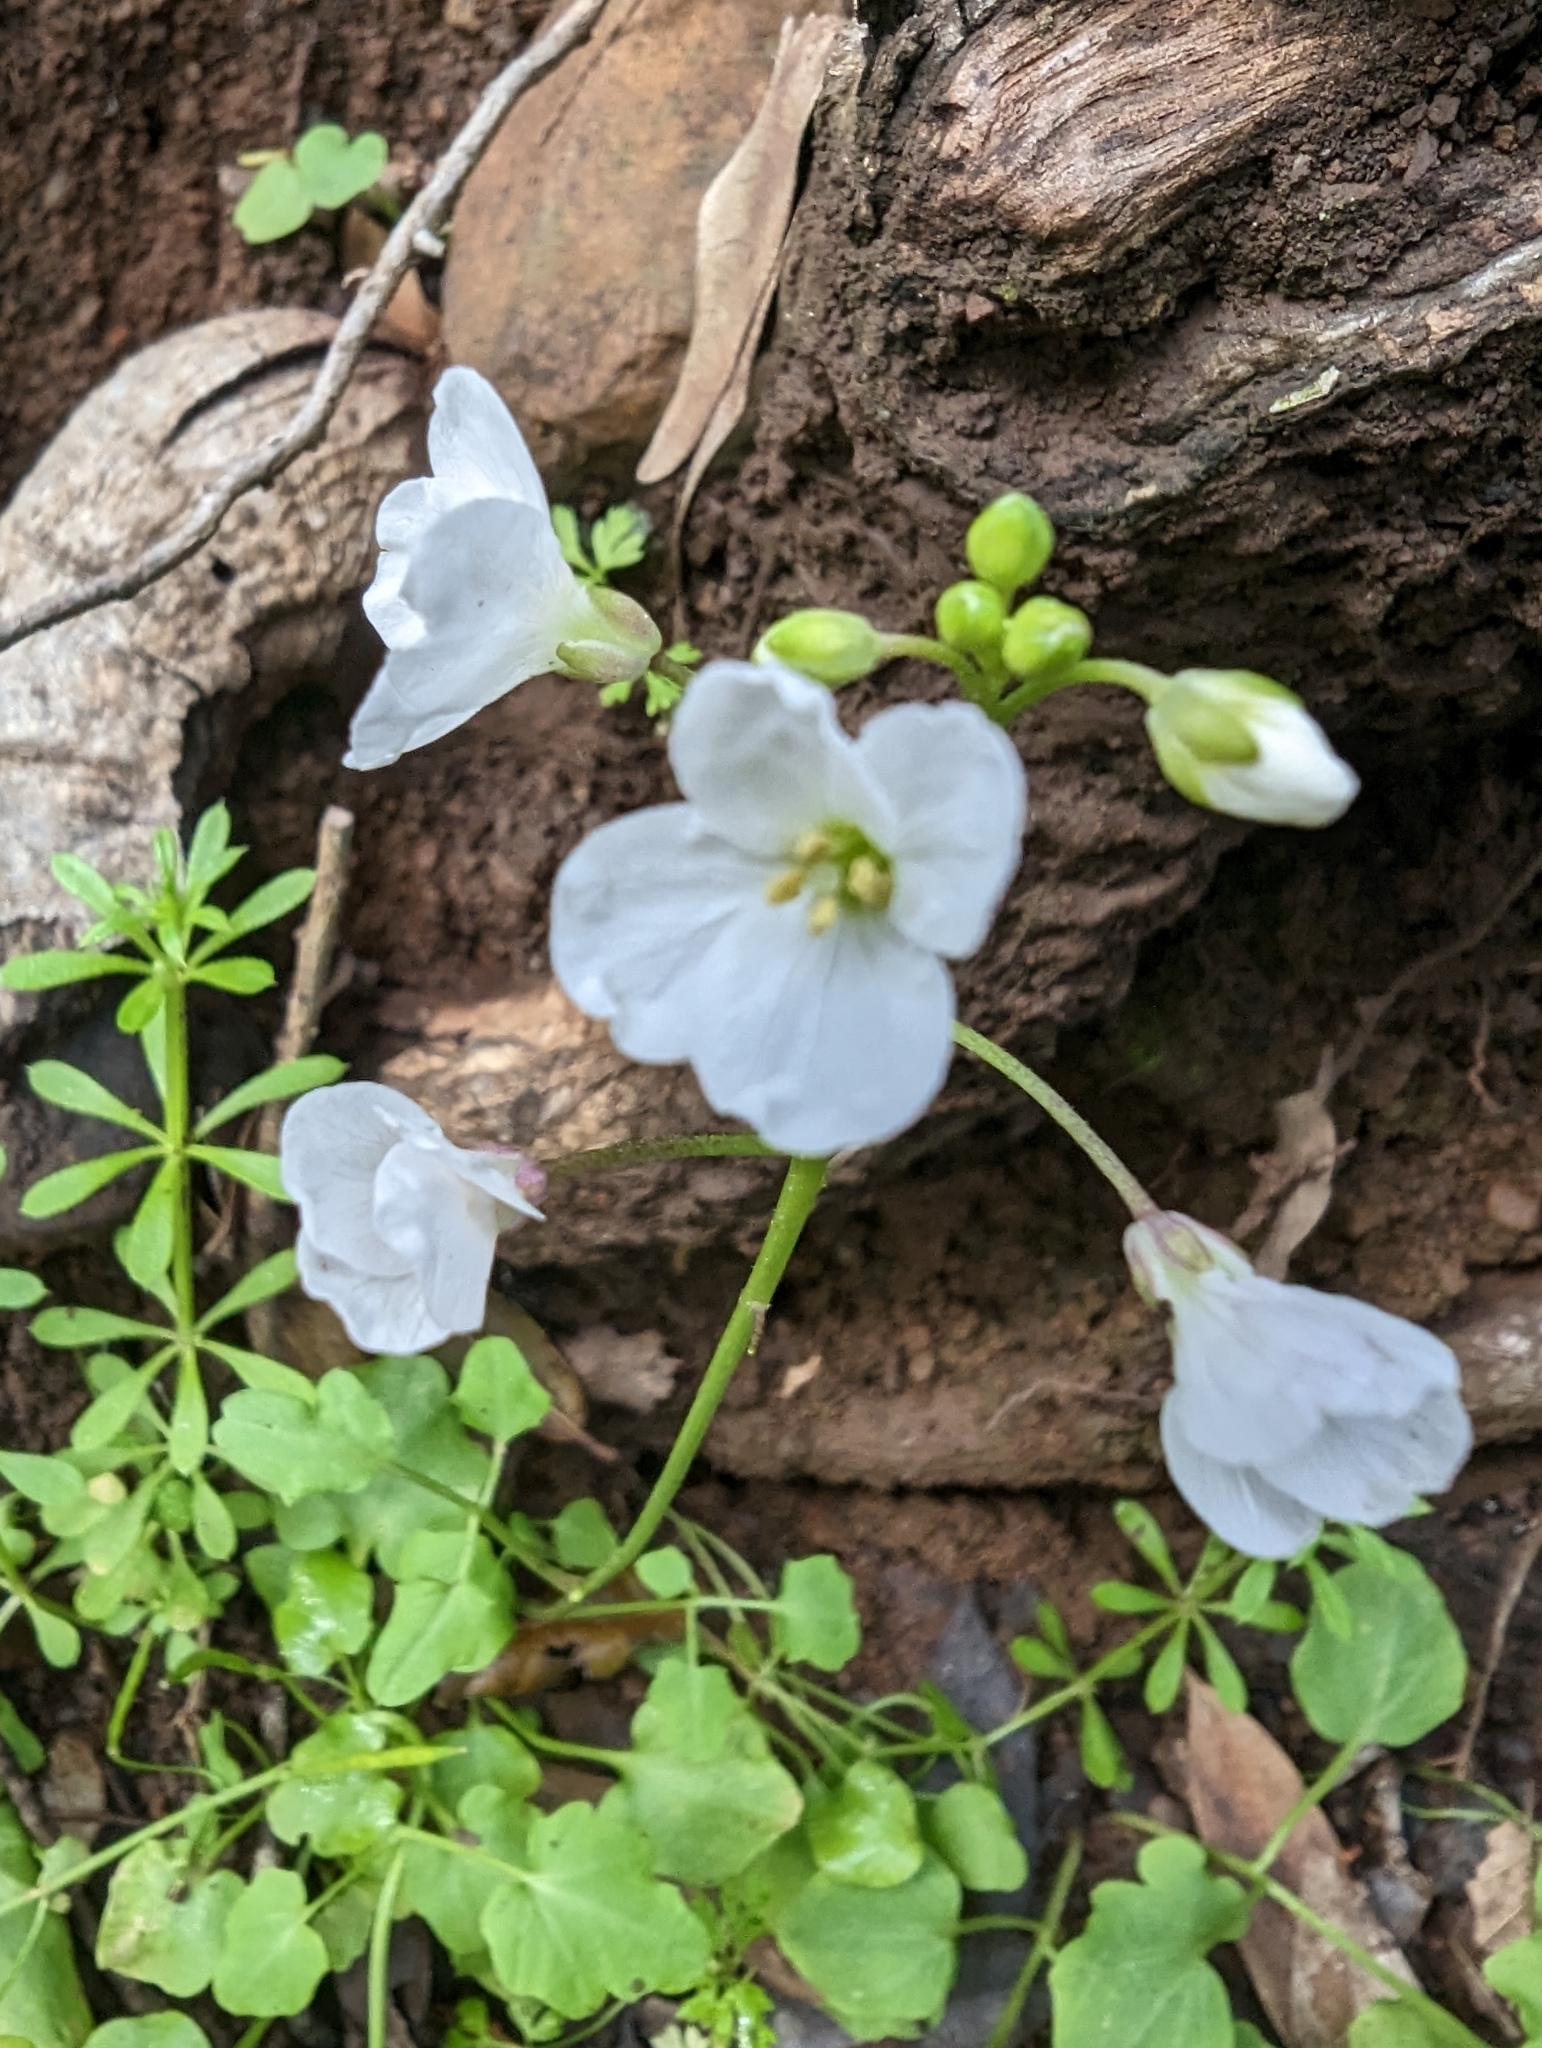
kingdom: Plantae
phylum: Tracheophyta
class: Magnoliopsida
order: Brassicales
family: Brassicaceae
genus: Cardamine
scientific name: Cardamine californica
